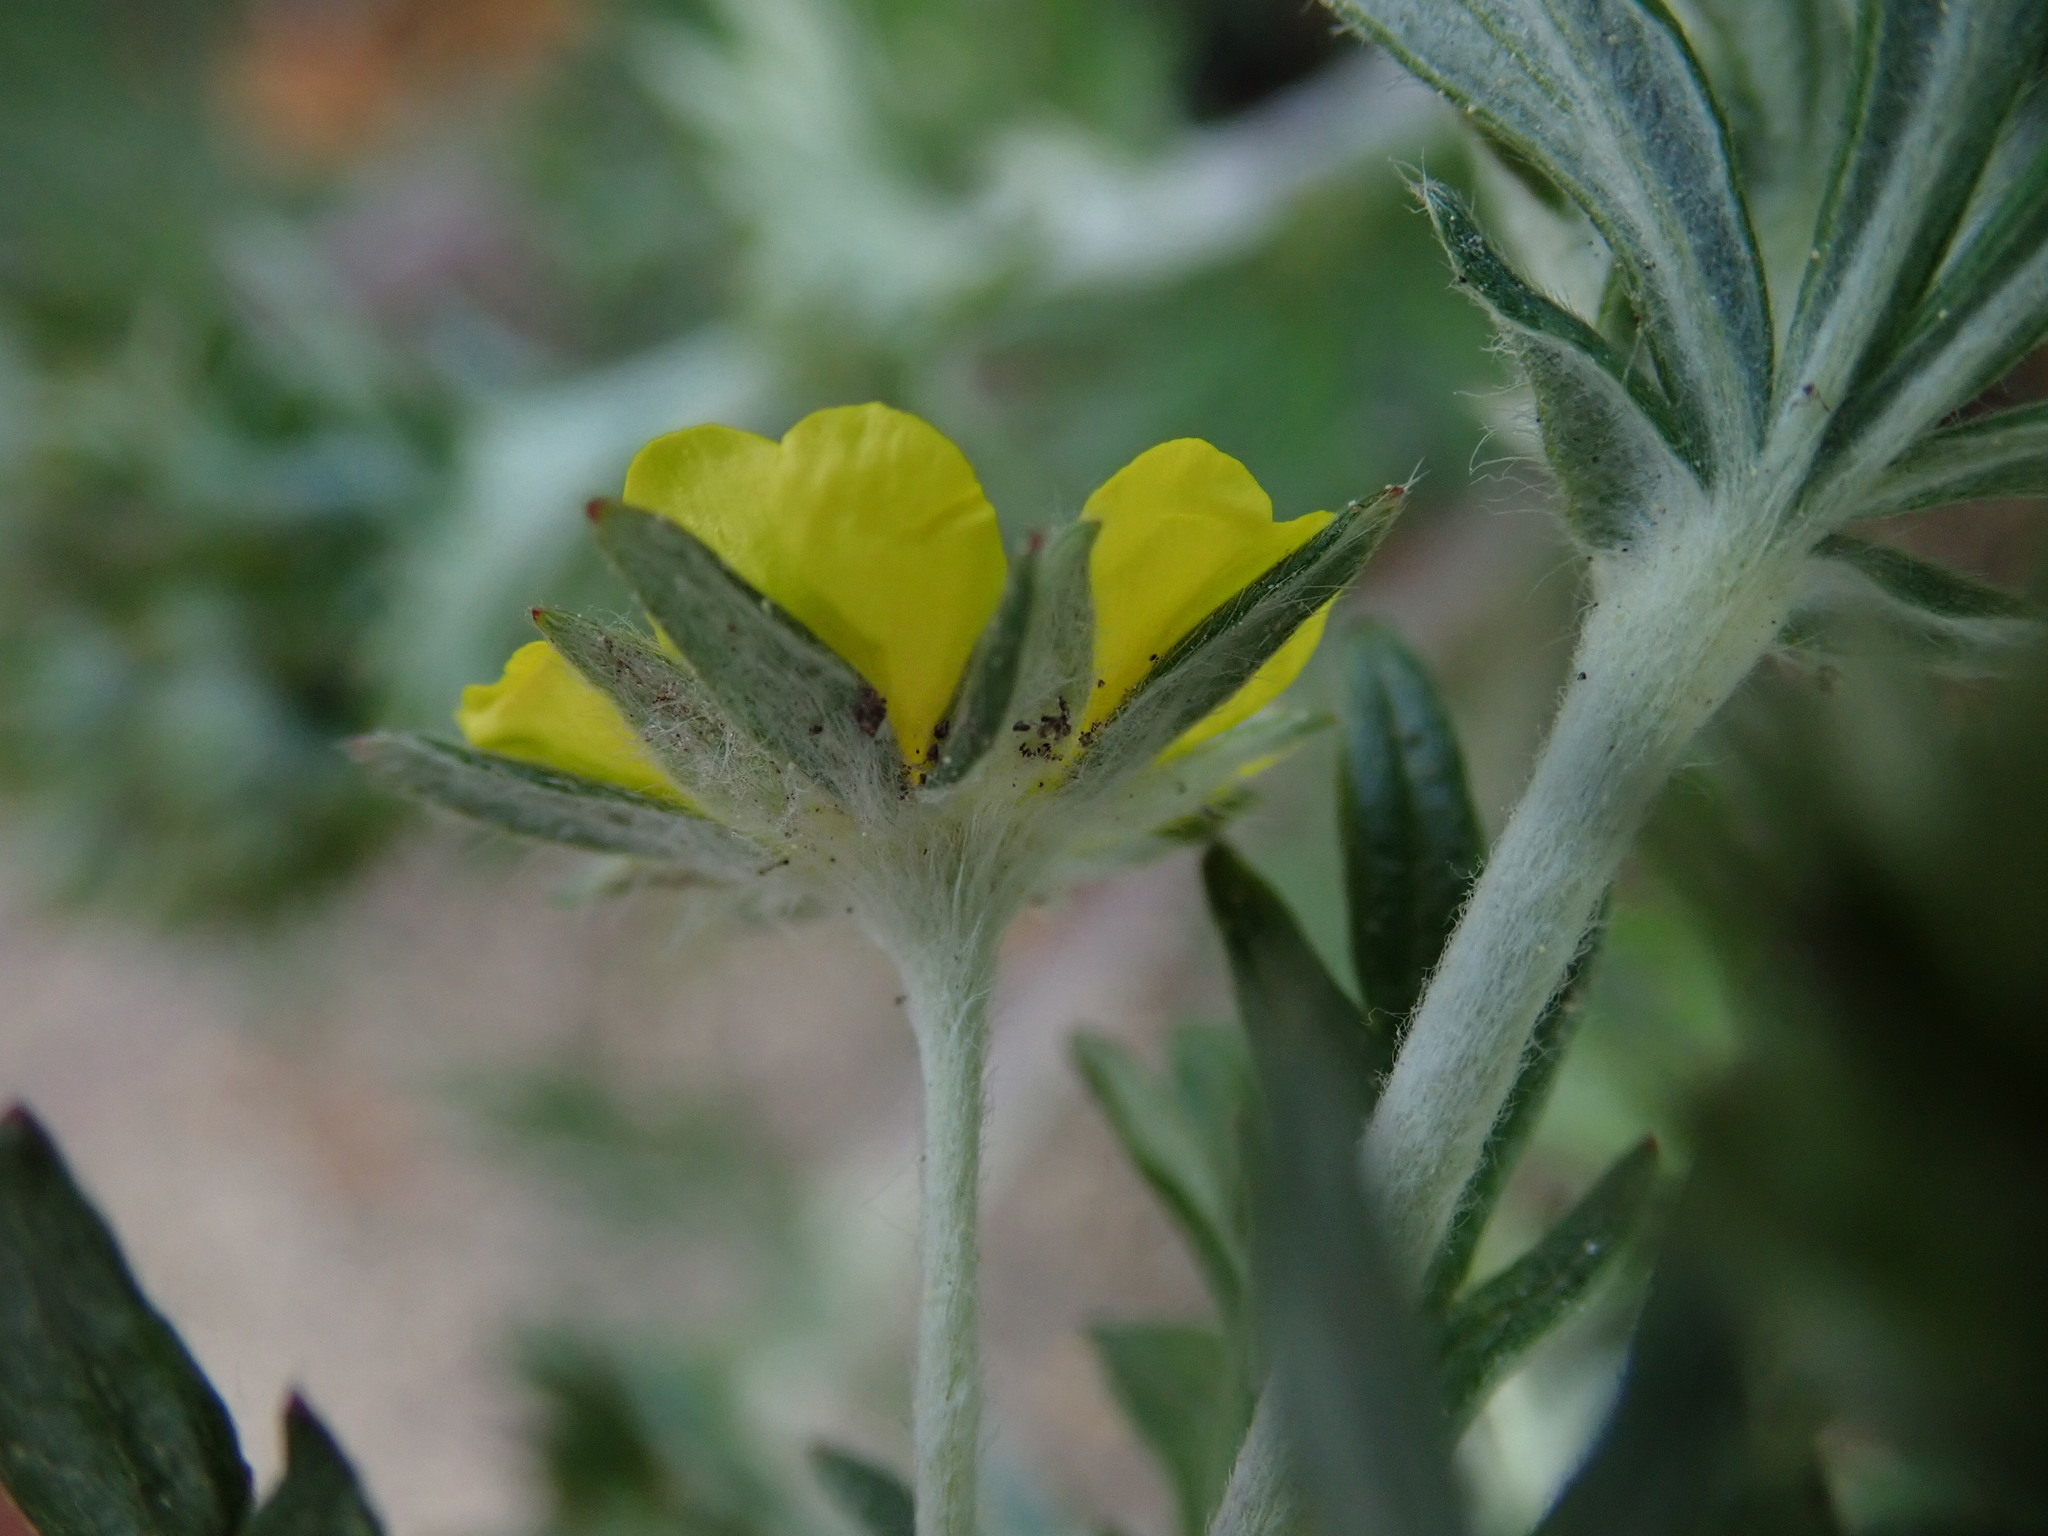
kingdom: Plantae
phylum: Tracheophyta
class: Magnoliopsida
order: Rosales
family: Rosaceae
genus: Potentilla
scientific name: Potentilla argentea
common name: Hoary cinquefoil
